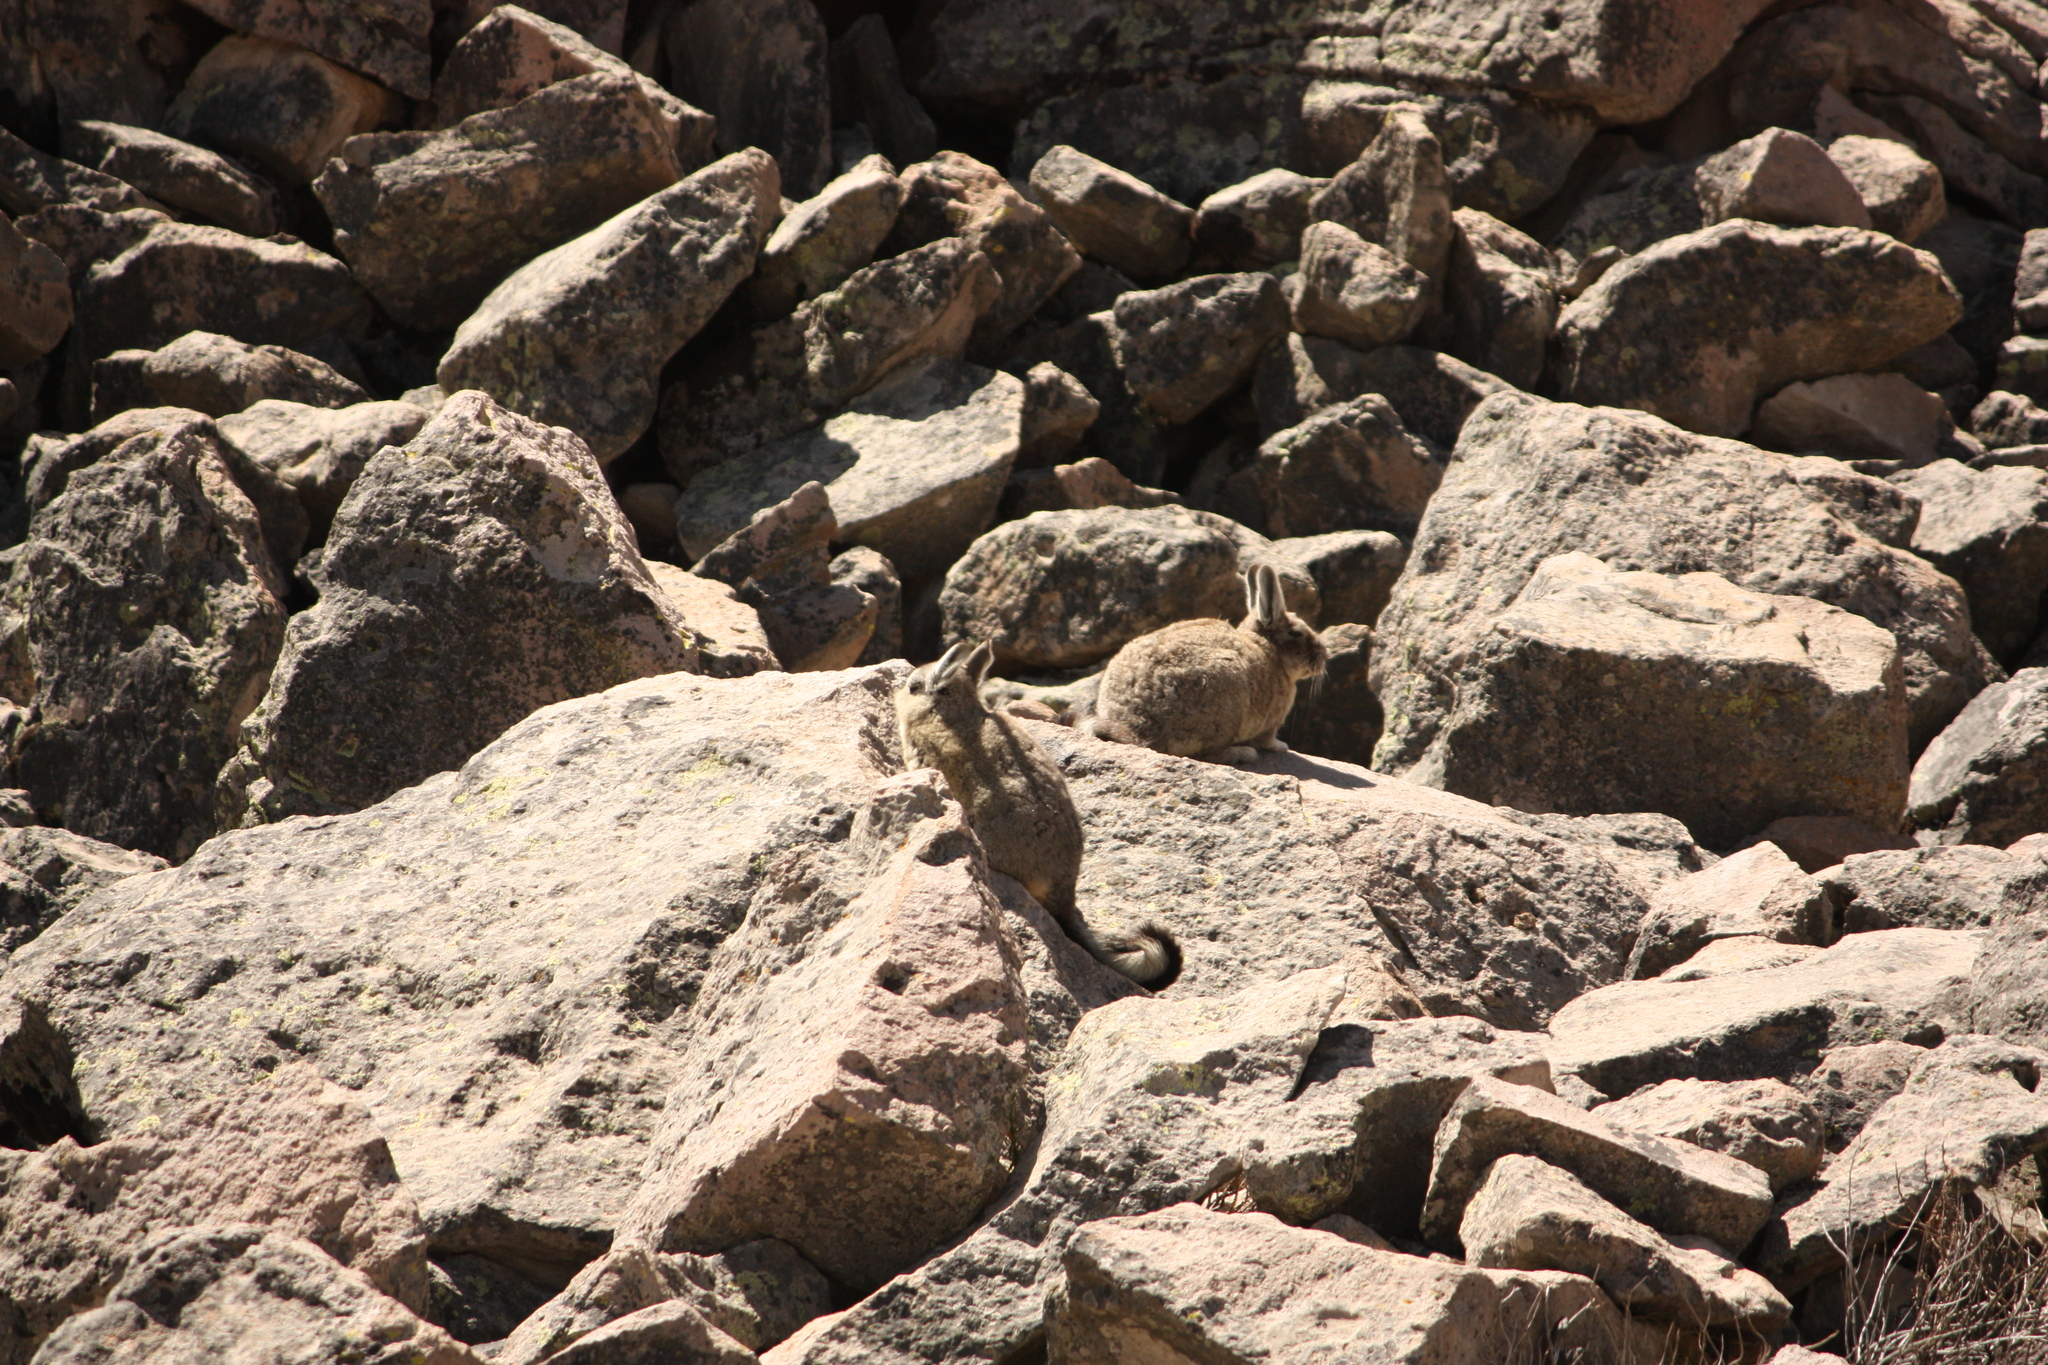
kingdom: Animalia
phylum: Chordata
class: Mammalia
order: Rodentia
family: Chinchillidae
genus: Lagidium
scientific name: Lagidium viscacia
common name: Southern viscacha
